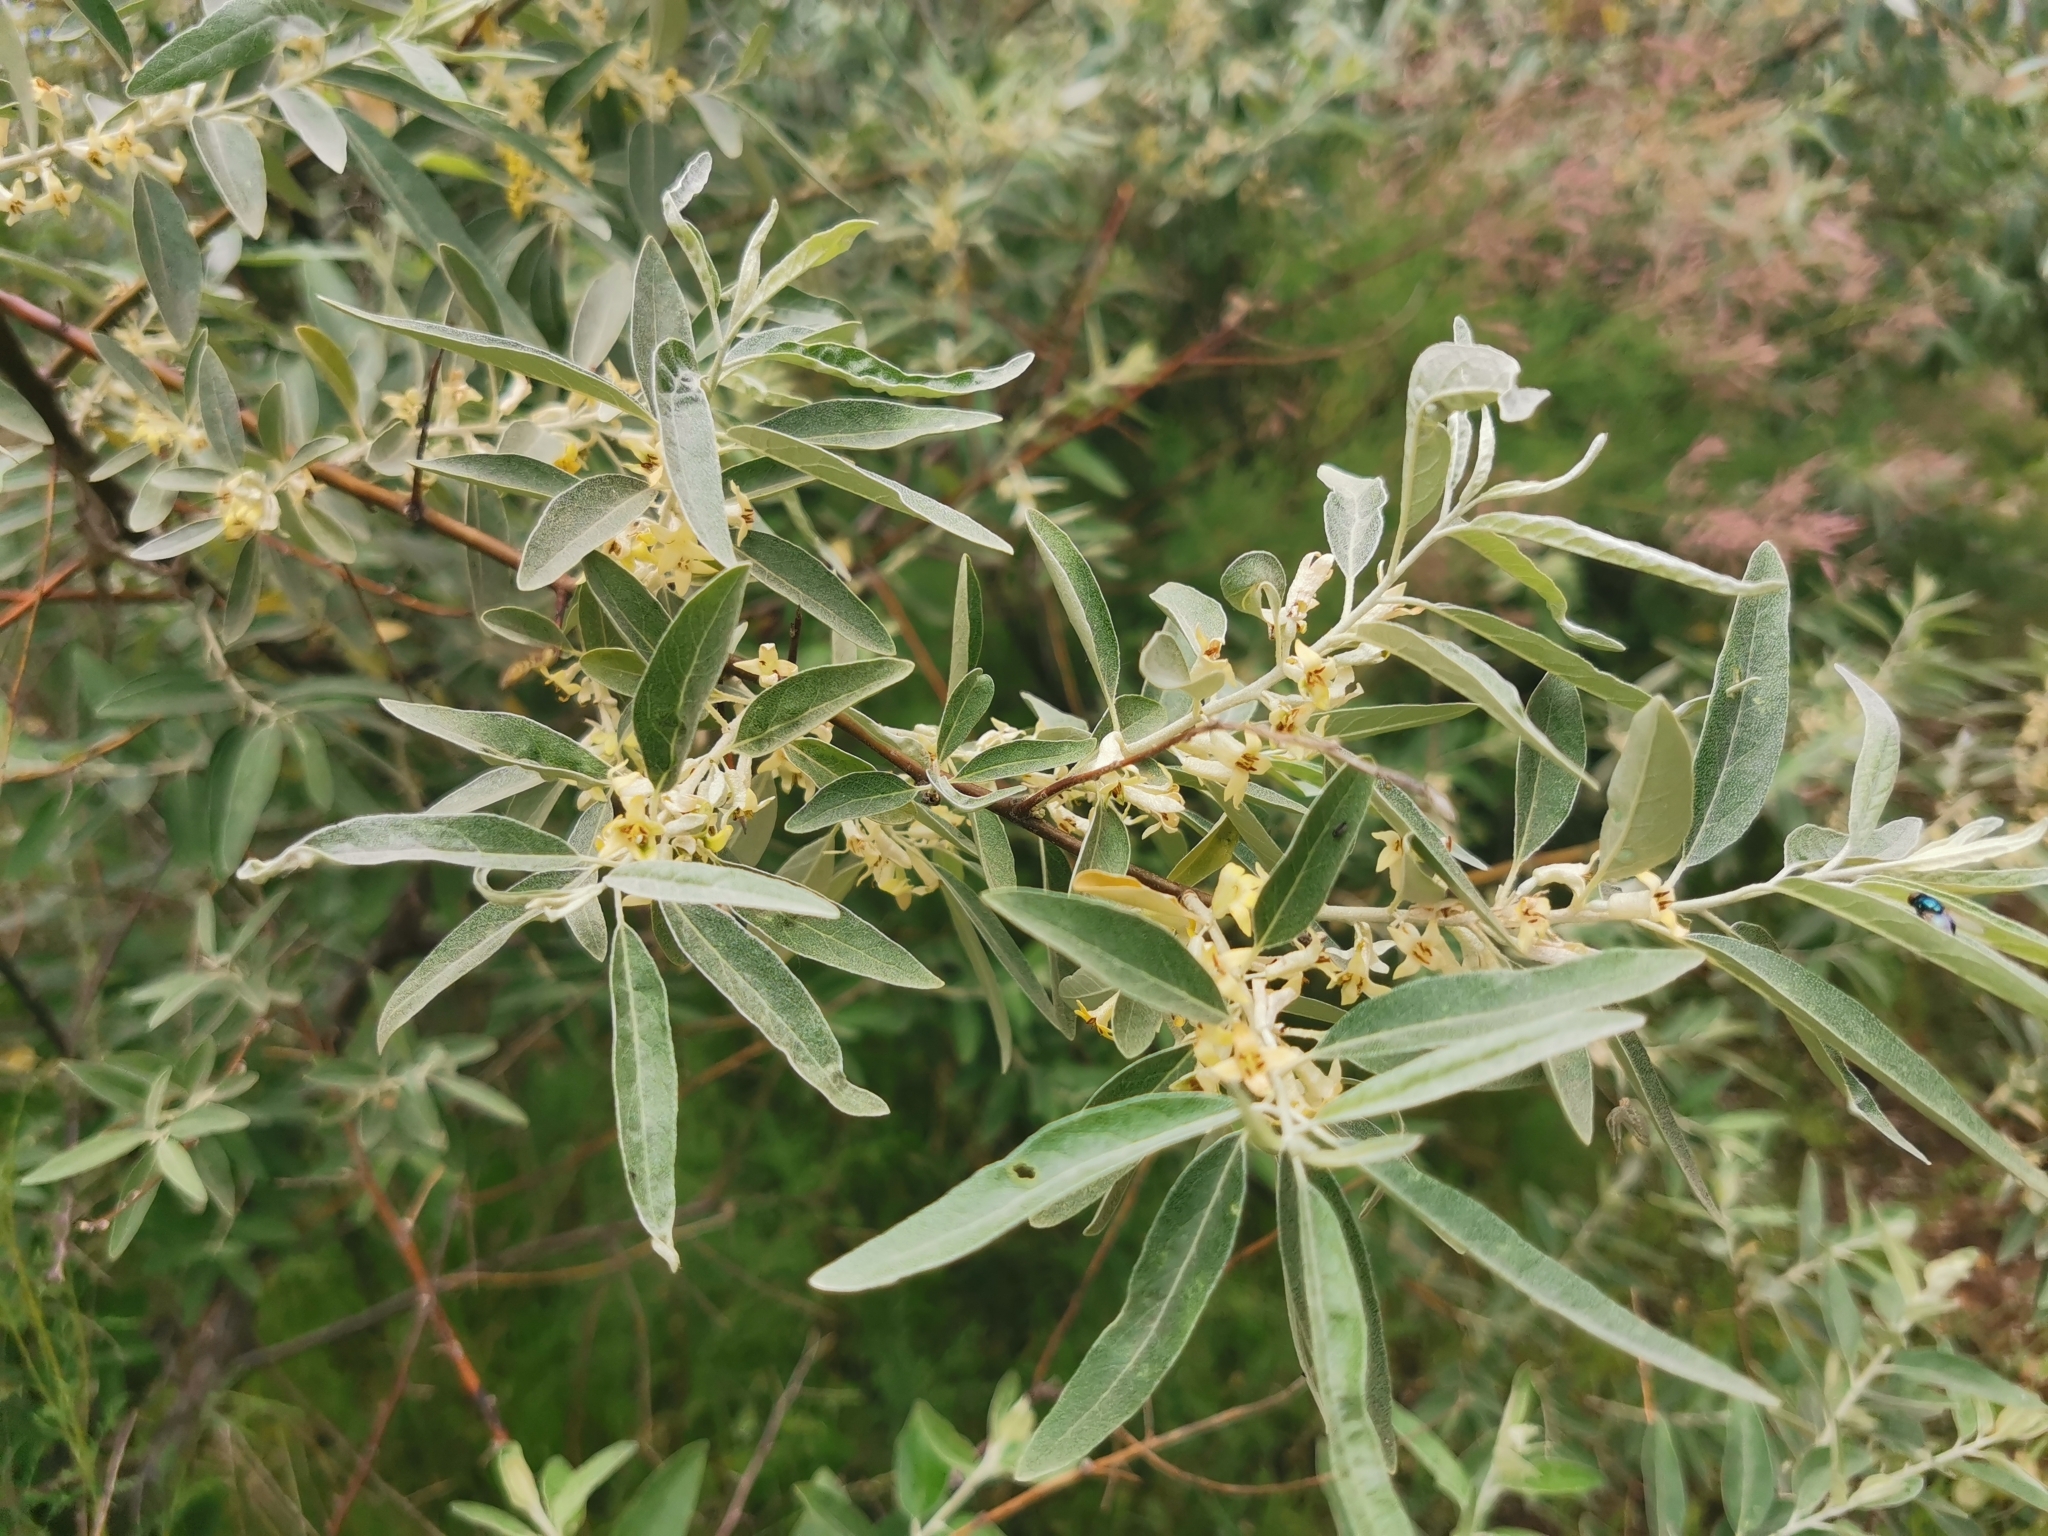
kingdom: Plantae
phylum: Tracheophyta
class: Magnoliopsida
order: Rosales
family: Elaeagnaceae
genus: Elaeagnus
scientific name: Elaeagnus angustifolia
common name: Russian olive
